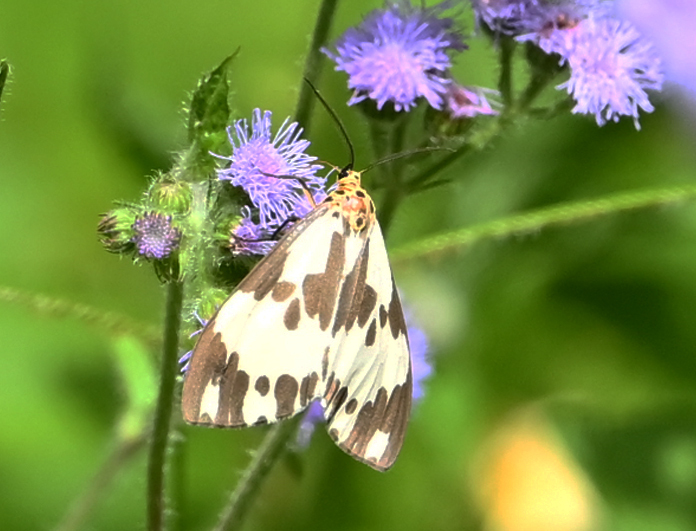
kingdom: Animalia
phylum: Arthropoda
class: Insecta
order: Lepidoptera
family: Erebidae
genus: Nyctemera
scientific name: Nyctemera carissima
